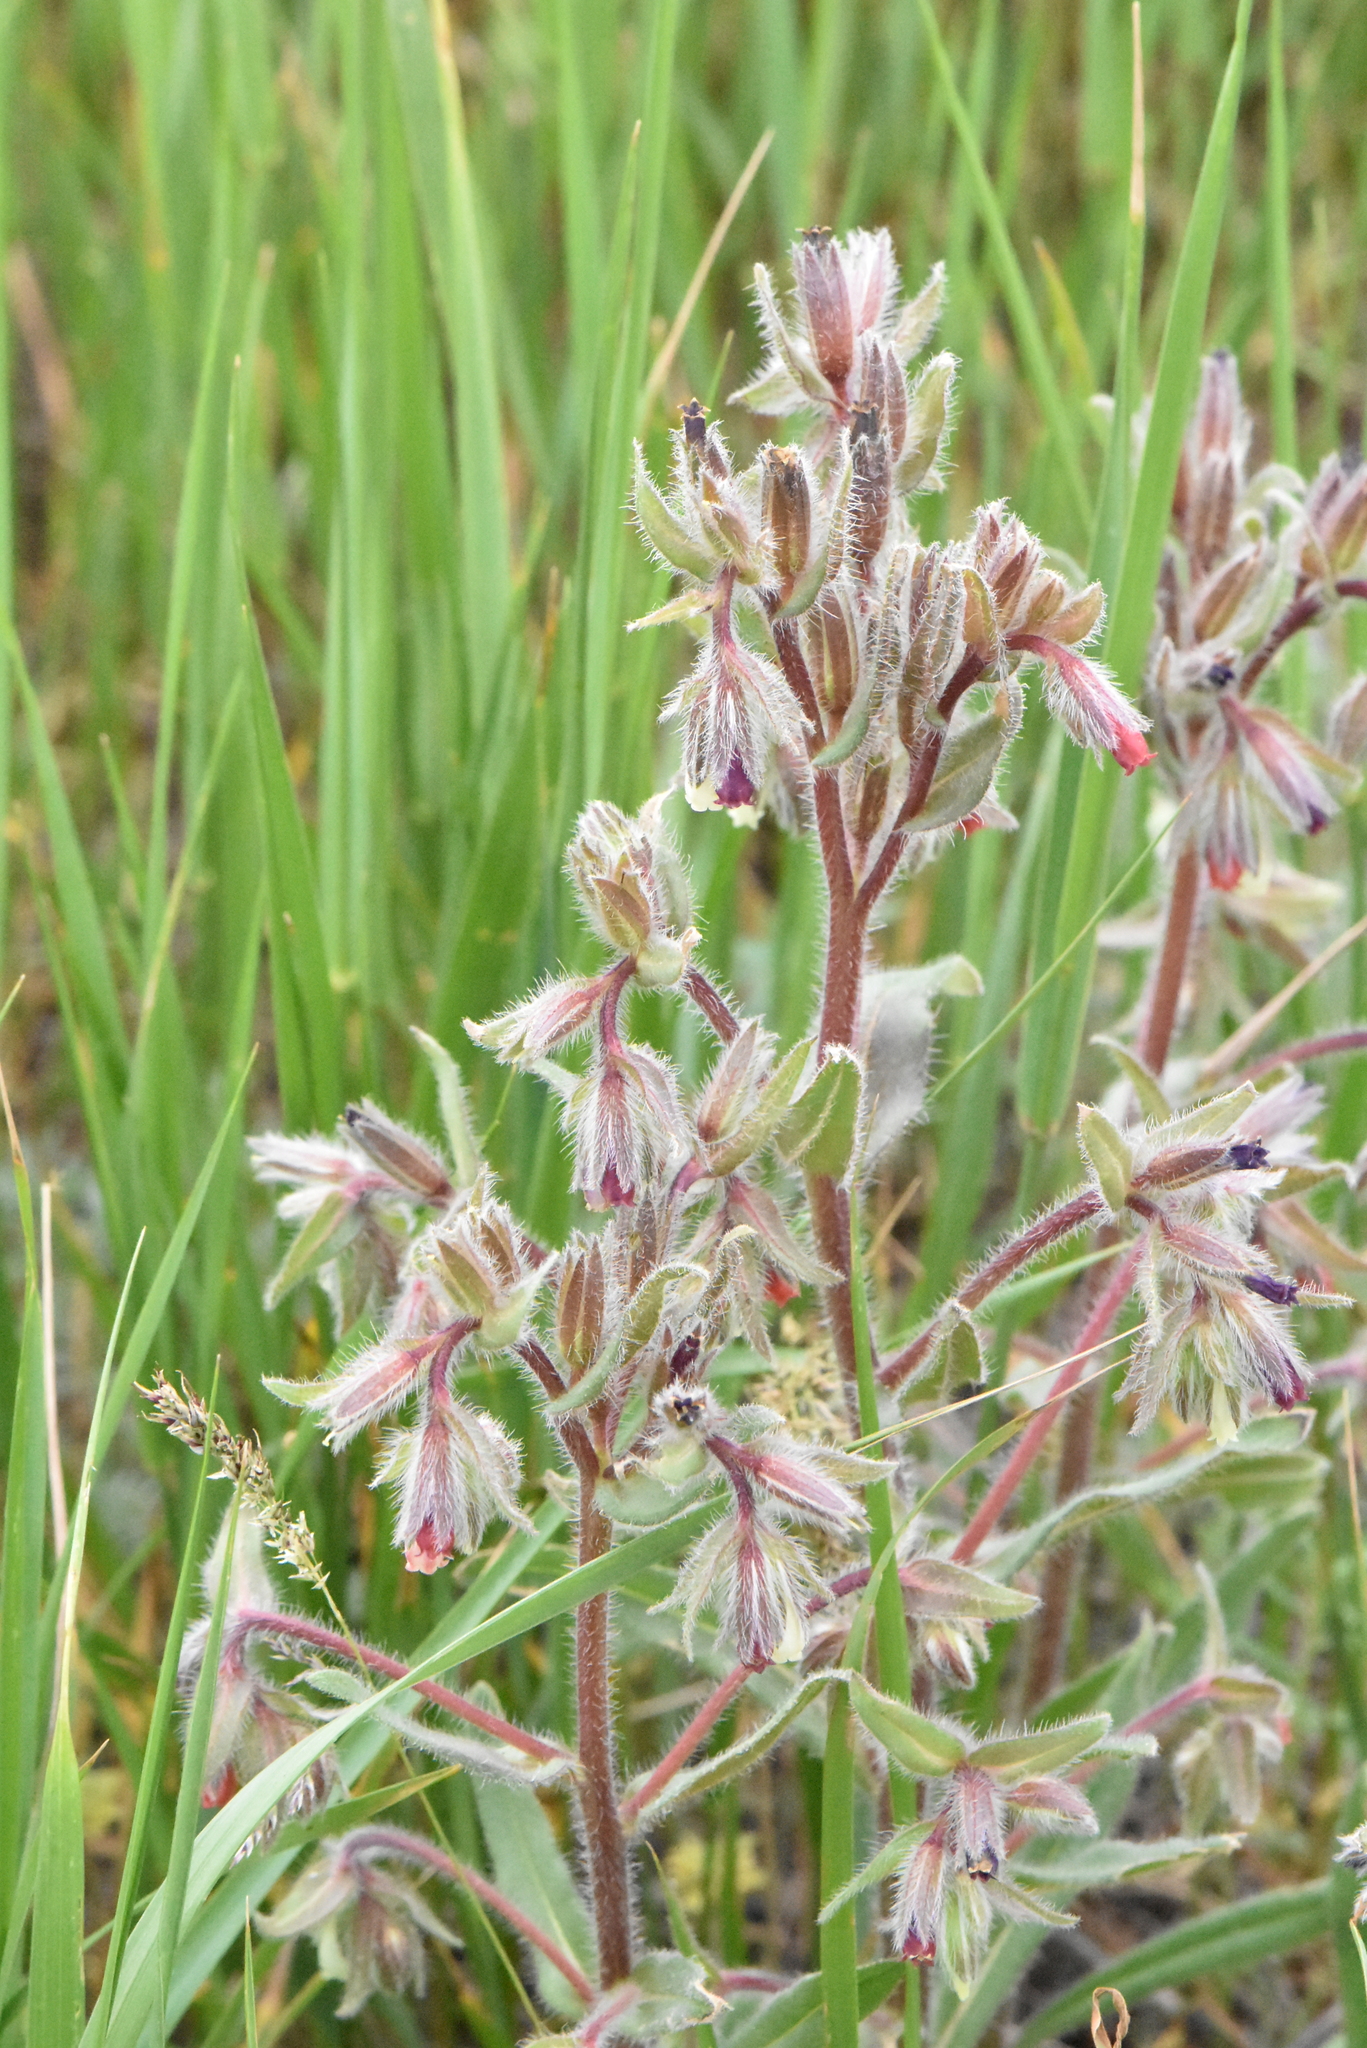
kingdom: Plantae
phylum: Tracheophyta
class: Magnoliopsida
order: Boraginales
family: Boraginaceae
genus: Onosma
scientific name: Onosma polychroma
